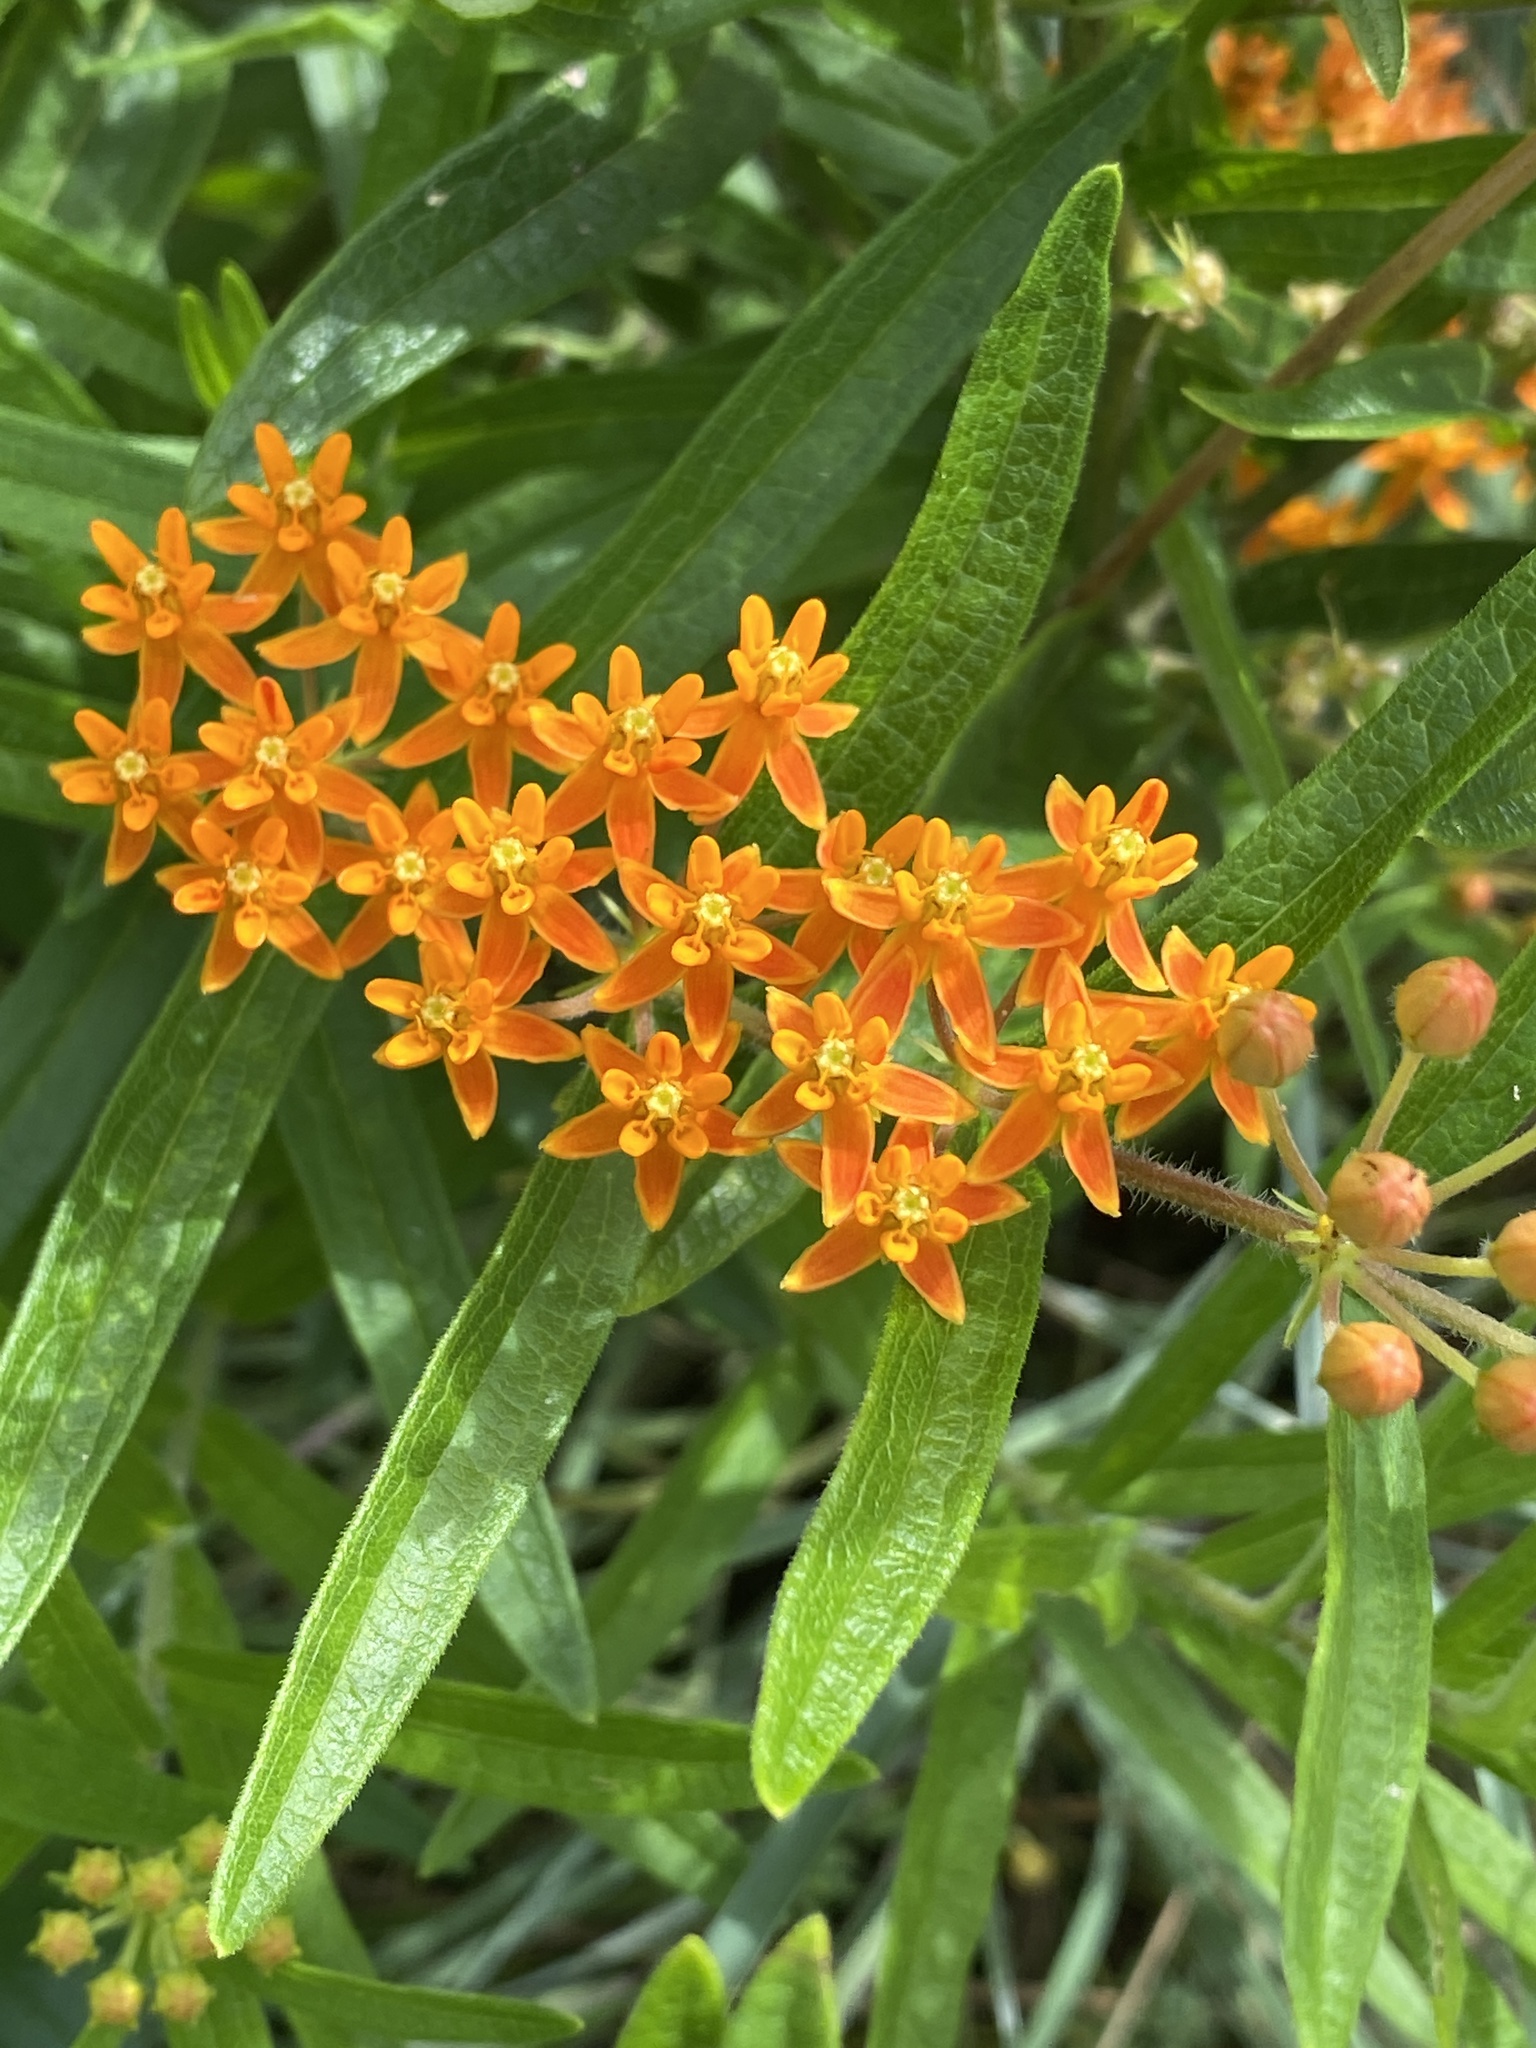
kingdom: Plantae
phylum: Tracheophyta
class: Magnoliopsida
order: Gentianales
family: Apocynaceae
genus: Asclepias
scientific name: Asclepias tuberosa
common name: Butterfly milkweed
